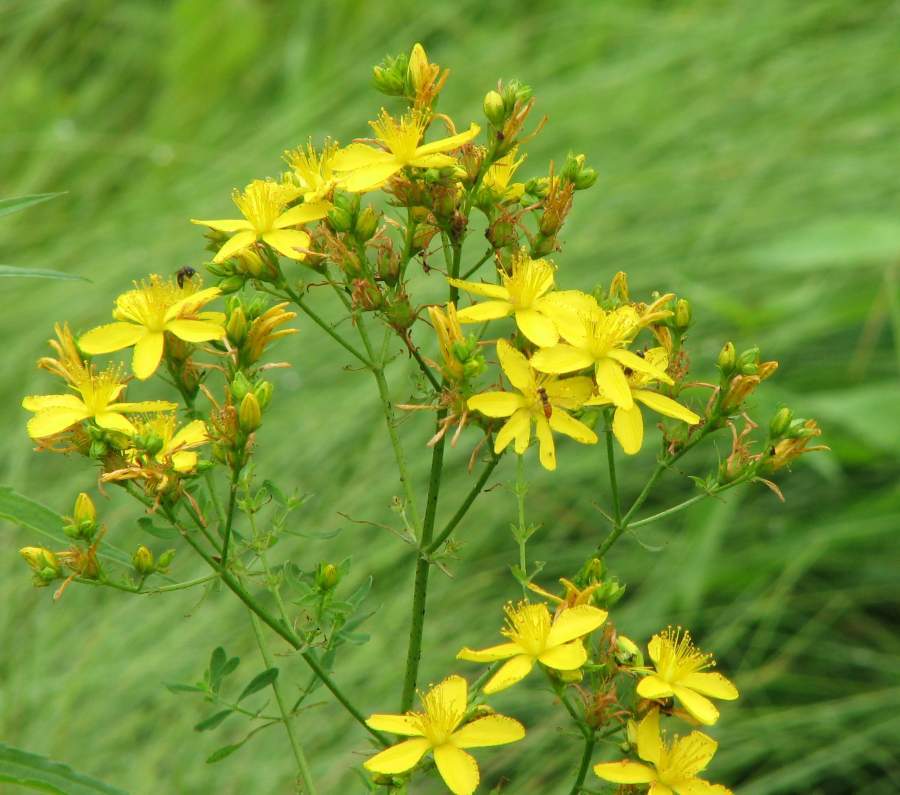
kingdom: Plantae
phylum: Tracheophyta
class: Magnoliopsida
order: Malpighiales
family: Hypericaceae
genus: Hypericum
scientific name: Hypericum perforatum
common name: Common st. johnswort
